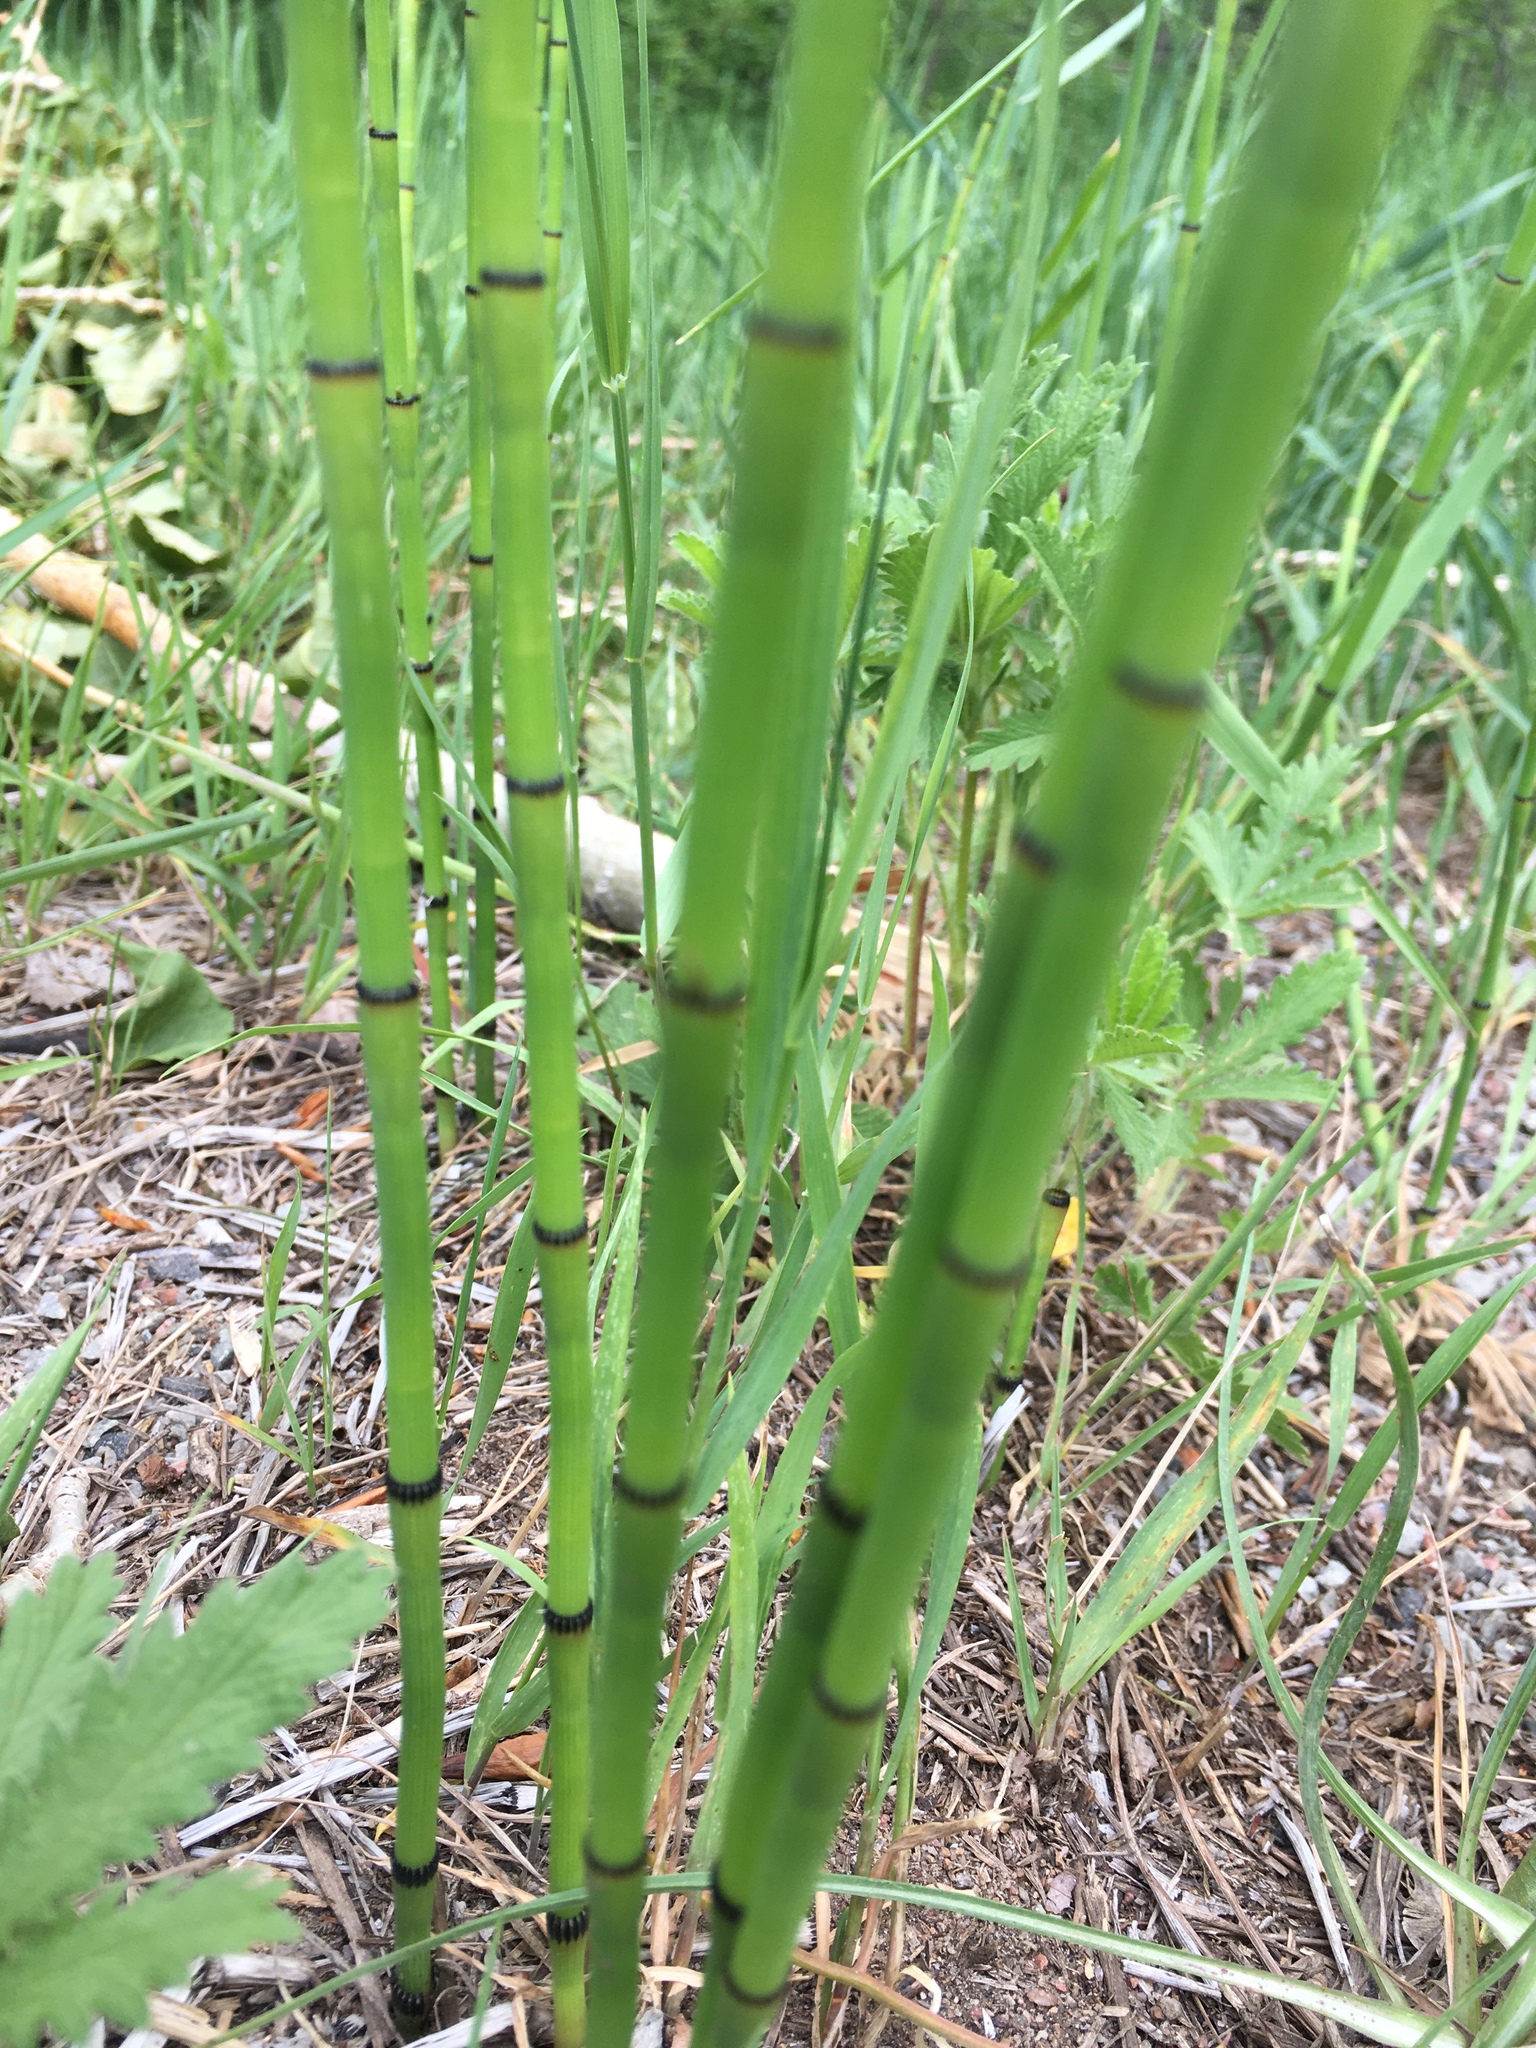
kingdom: Plantae
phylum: Tracheophyta
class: Polypodiopsida
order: Equisetales
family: Equisetaceae
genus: Equisetum
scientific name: Equisetum laevigatum
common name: Smooth scouring-rush
